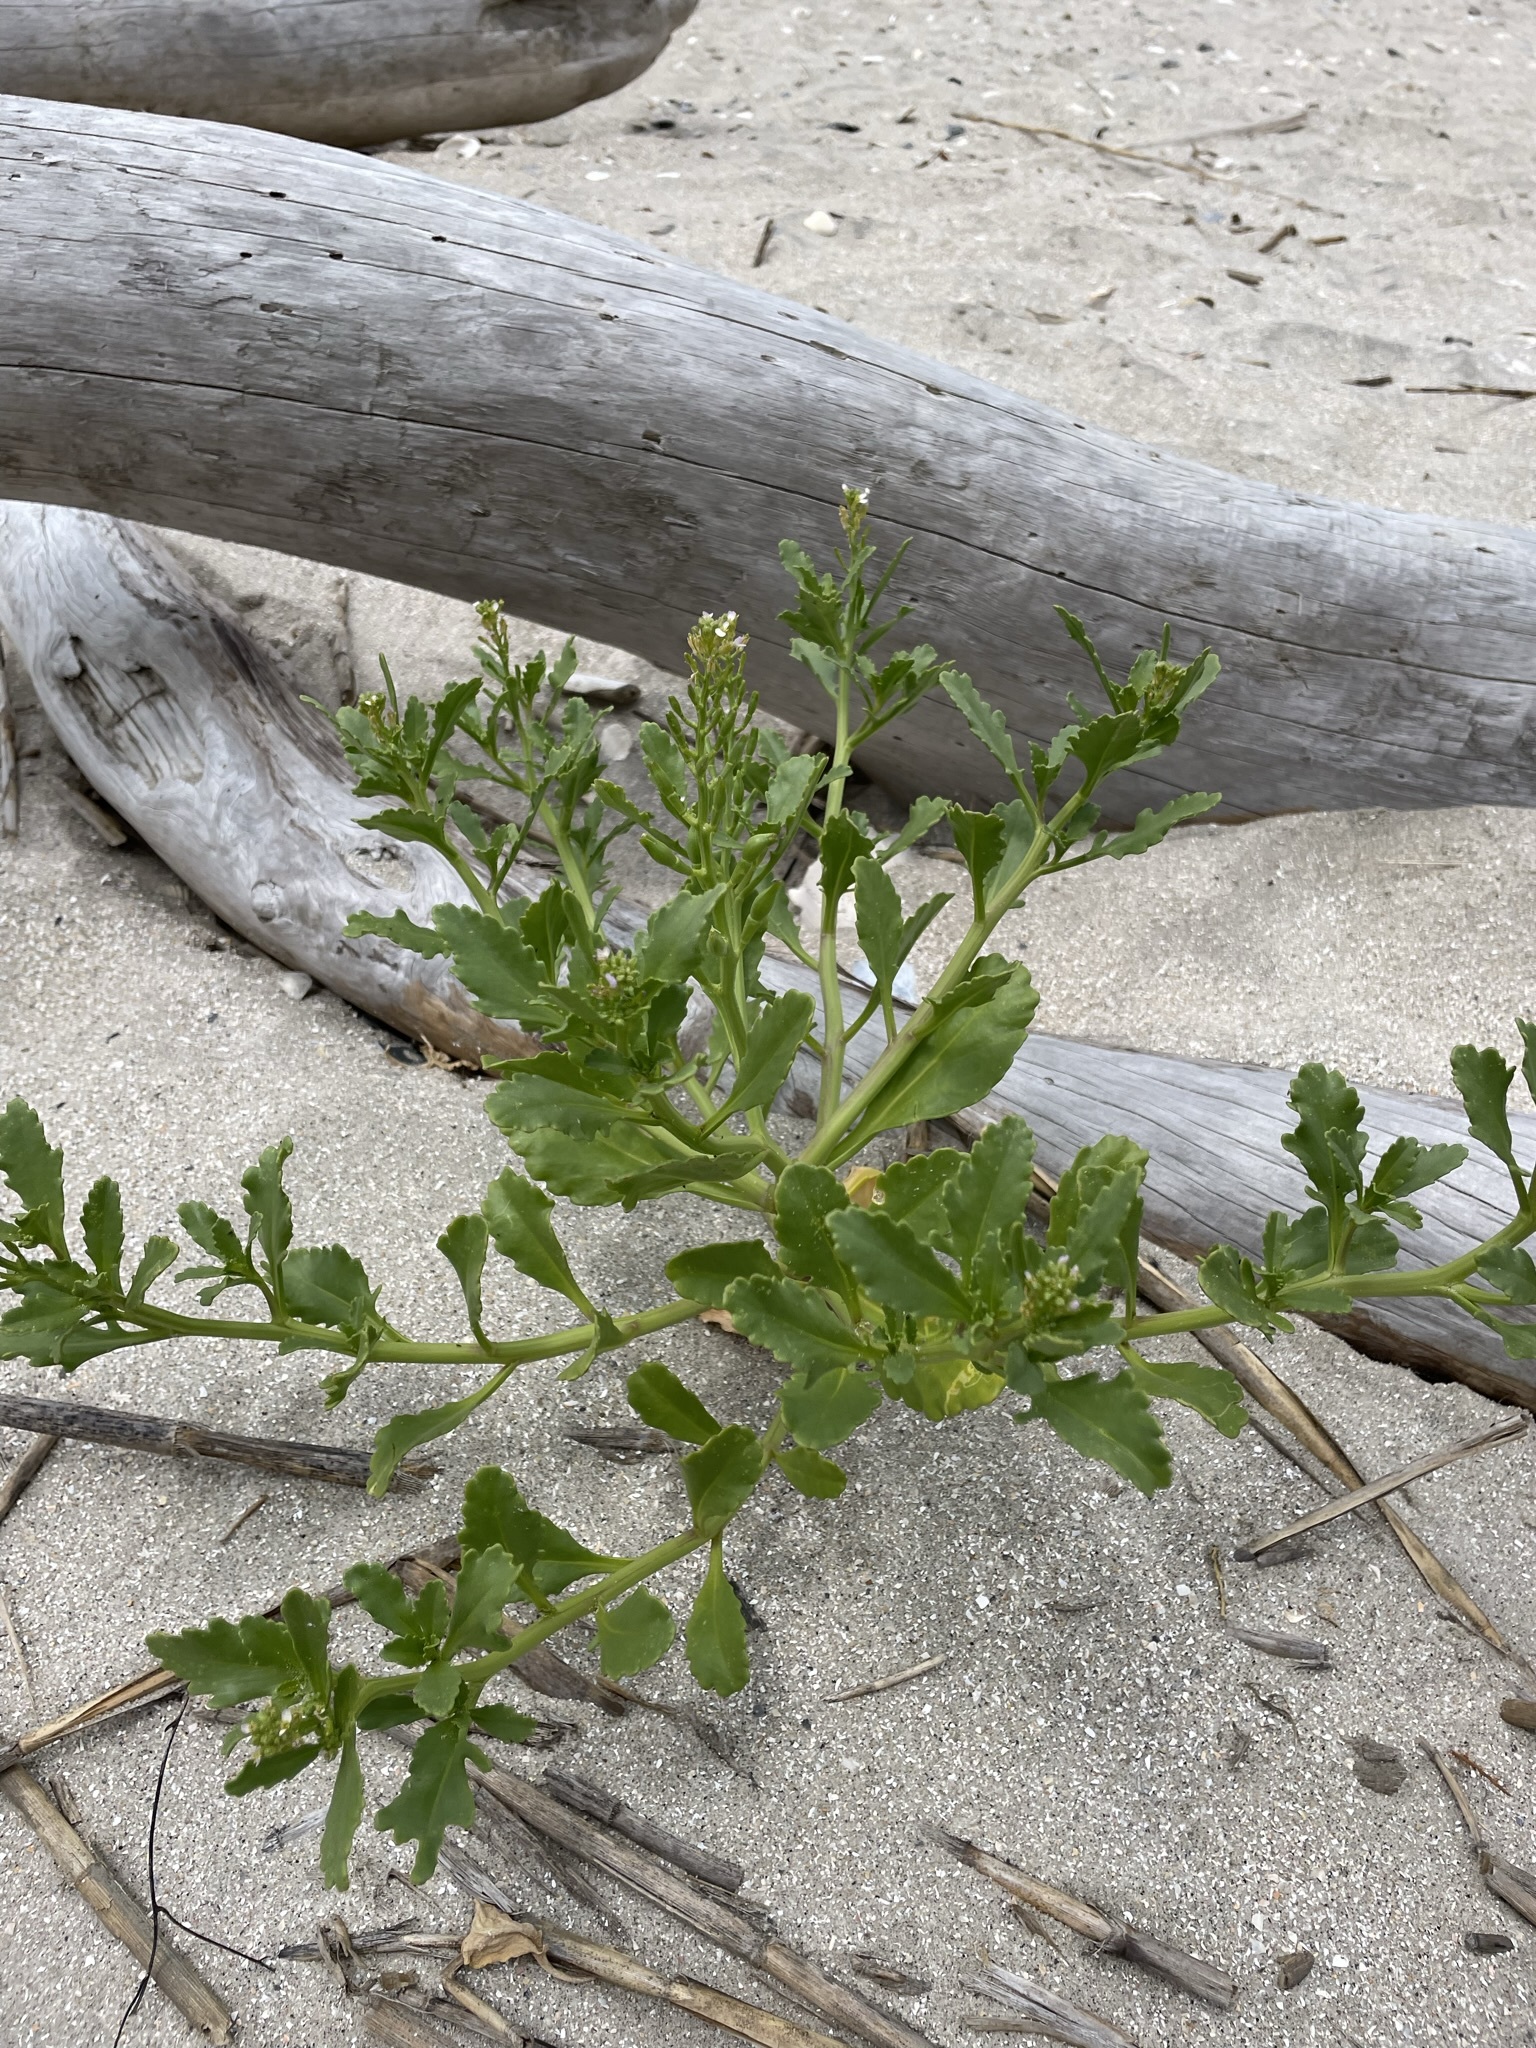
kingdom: Plantae
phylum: Tracheophyta
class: Magnoliopsida
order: Brassicales
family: Brassicaceae
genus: Cakile
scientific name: Cakile edentula
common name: American sea rocket
